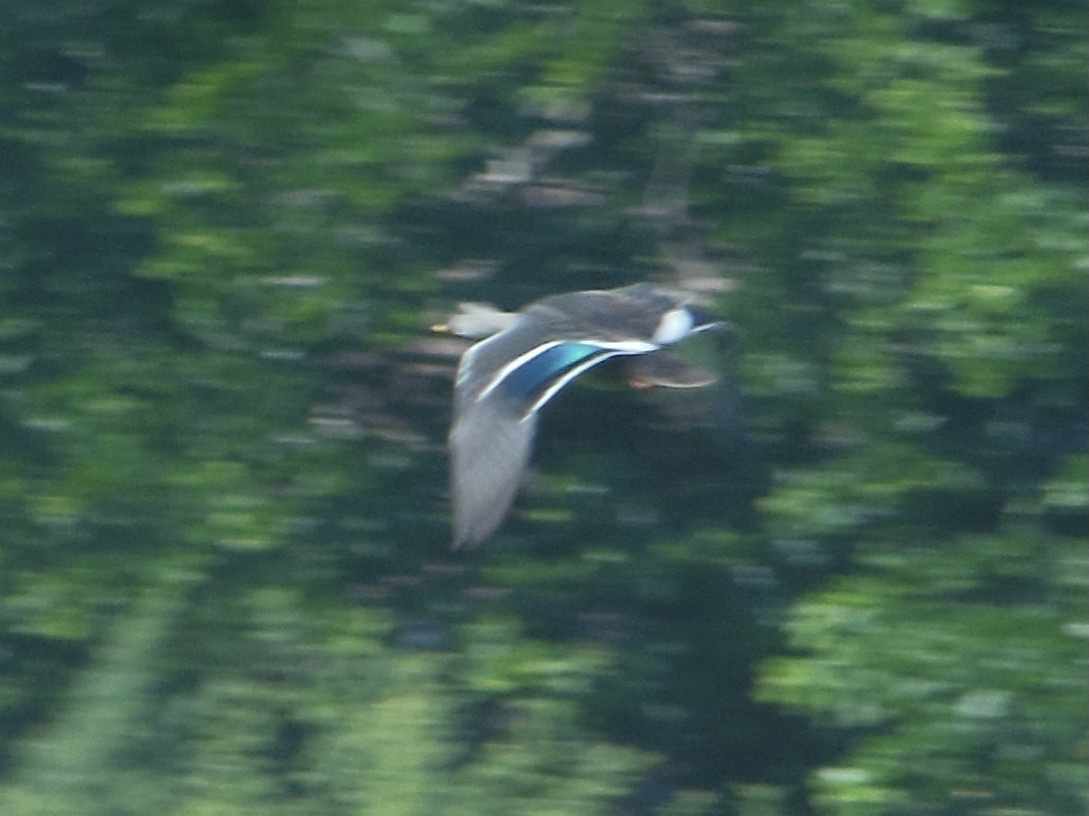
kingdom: Animalia
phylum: Chordata
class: Aves
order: Anseriformes
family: Anatidae
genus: Anas
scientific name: Anas poecilorhyncha
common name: Indian spot-billed duck
